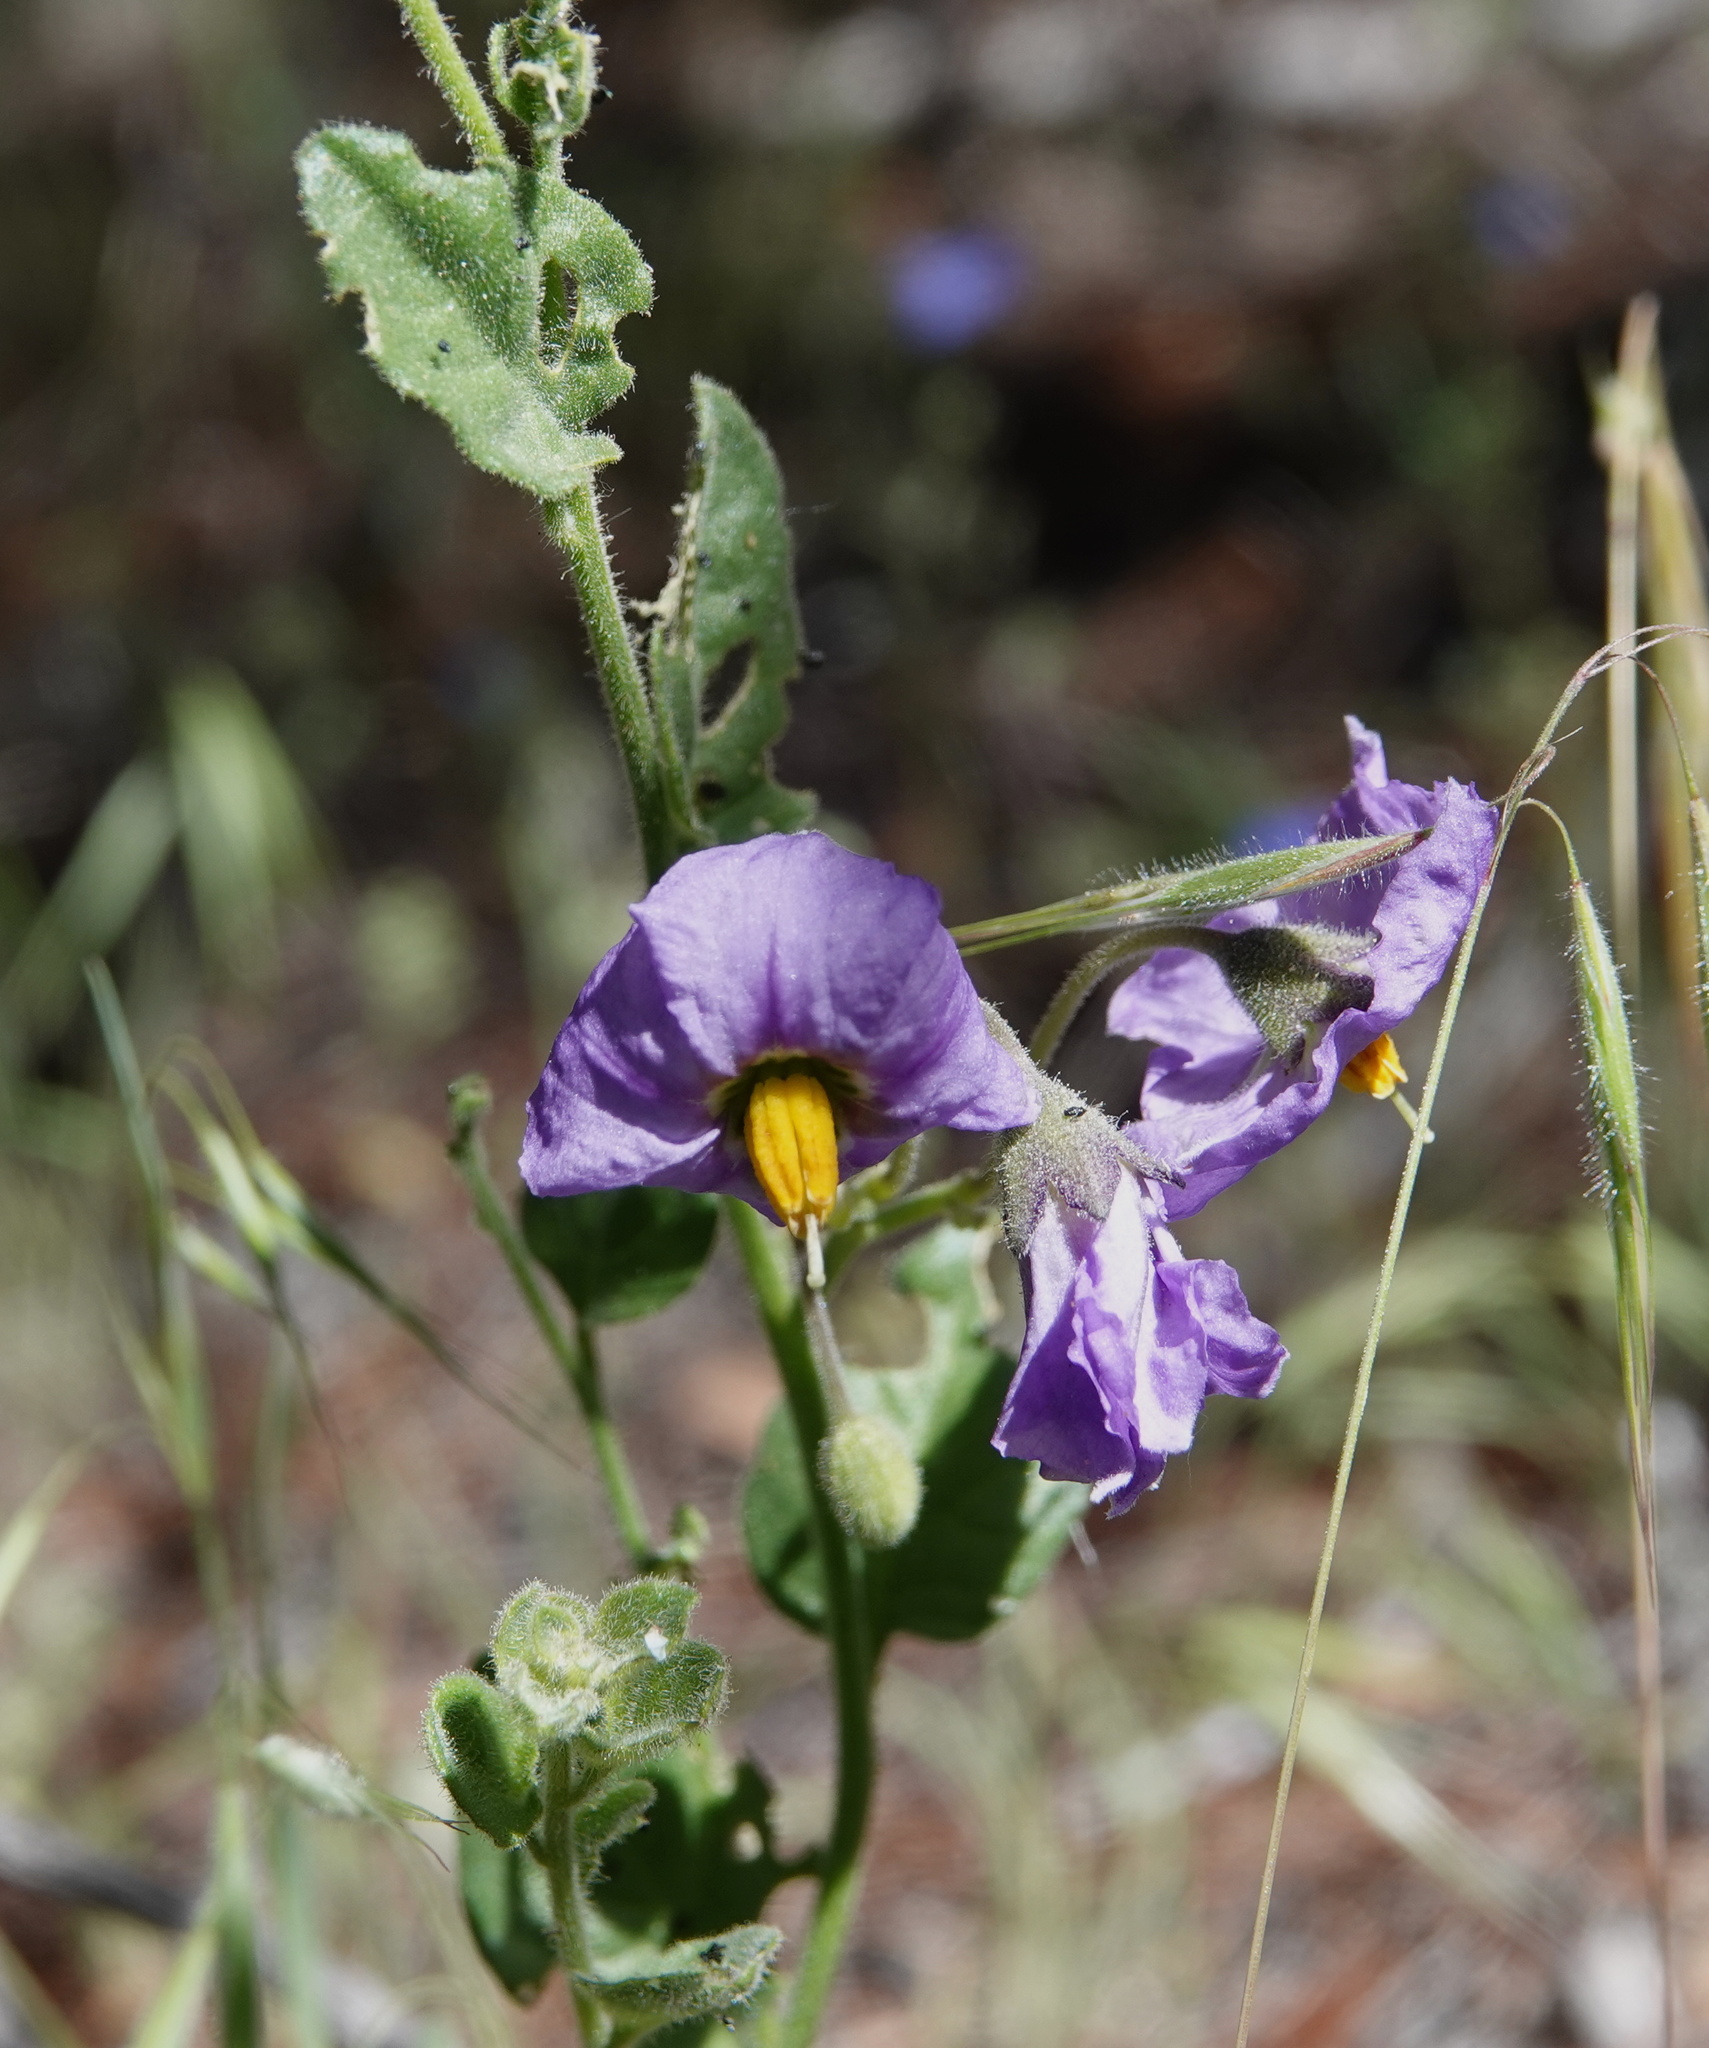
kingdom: Plantae
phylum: Tracheophyta
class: Magnoliopsida
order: Solanales
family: Solanaceae
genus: Solanum
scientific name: Solanum umbelliferum
